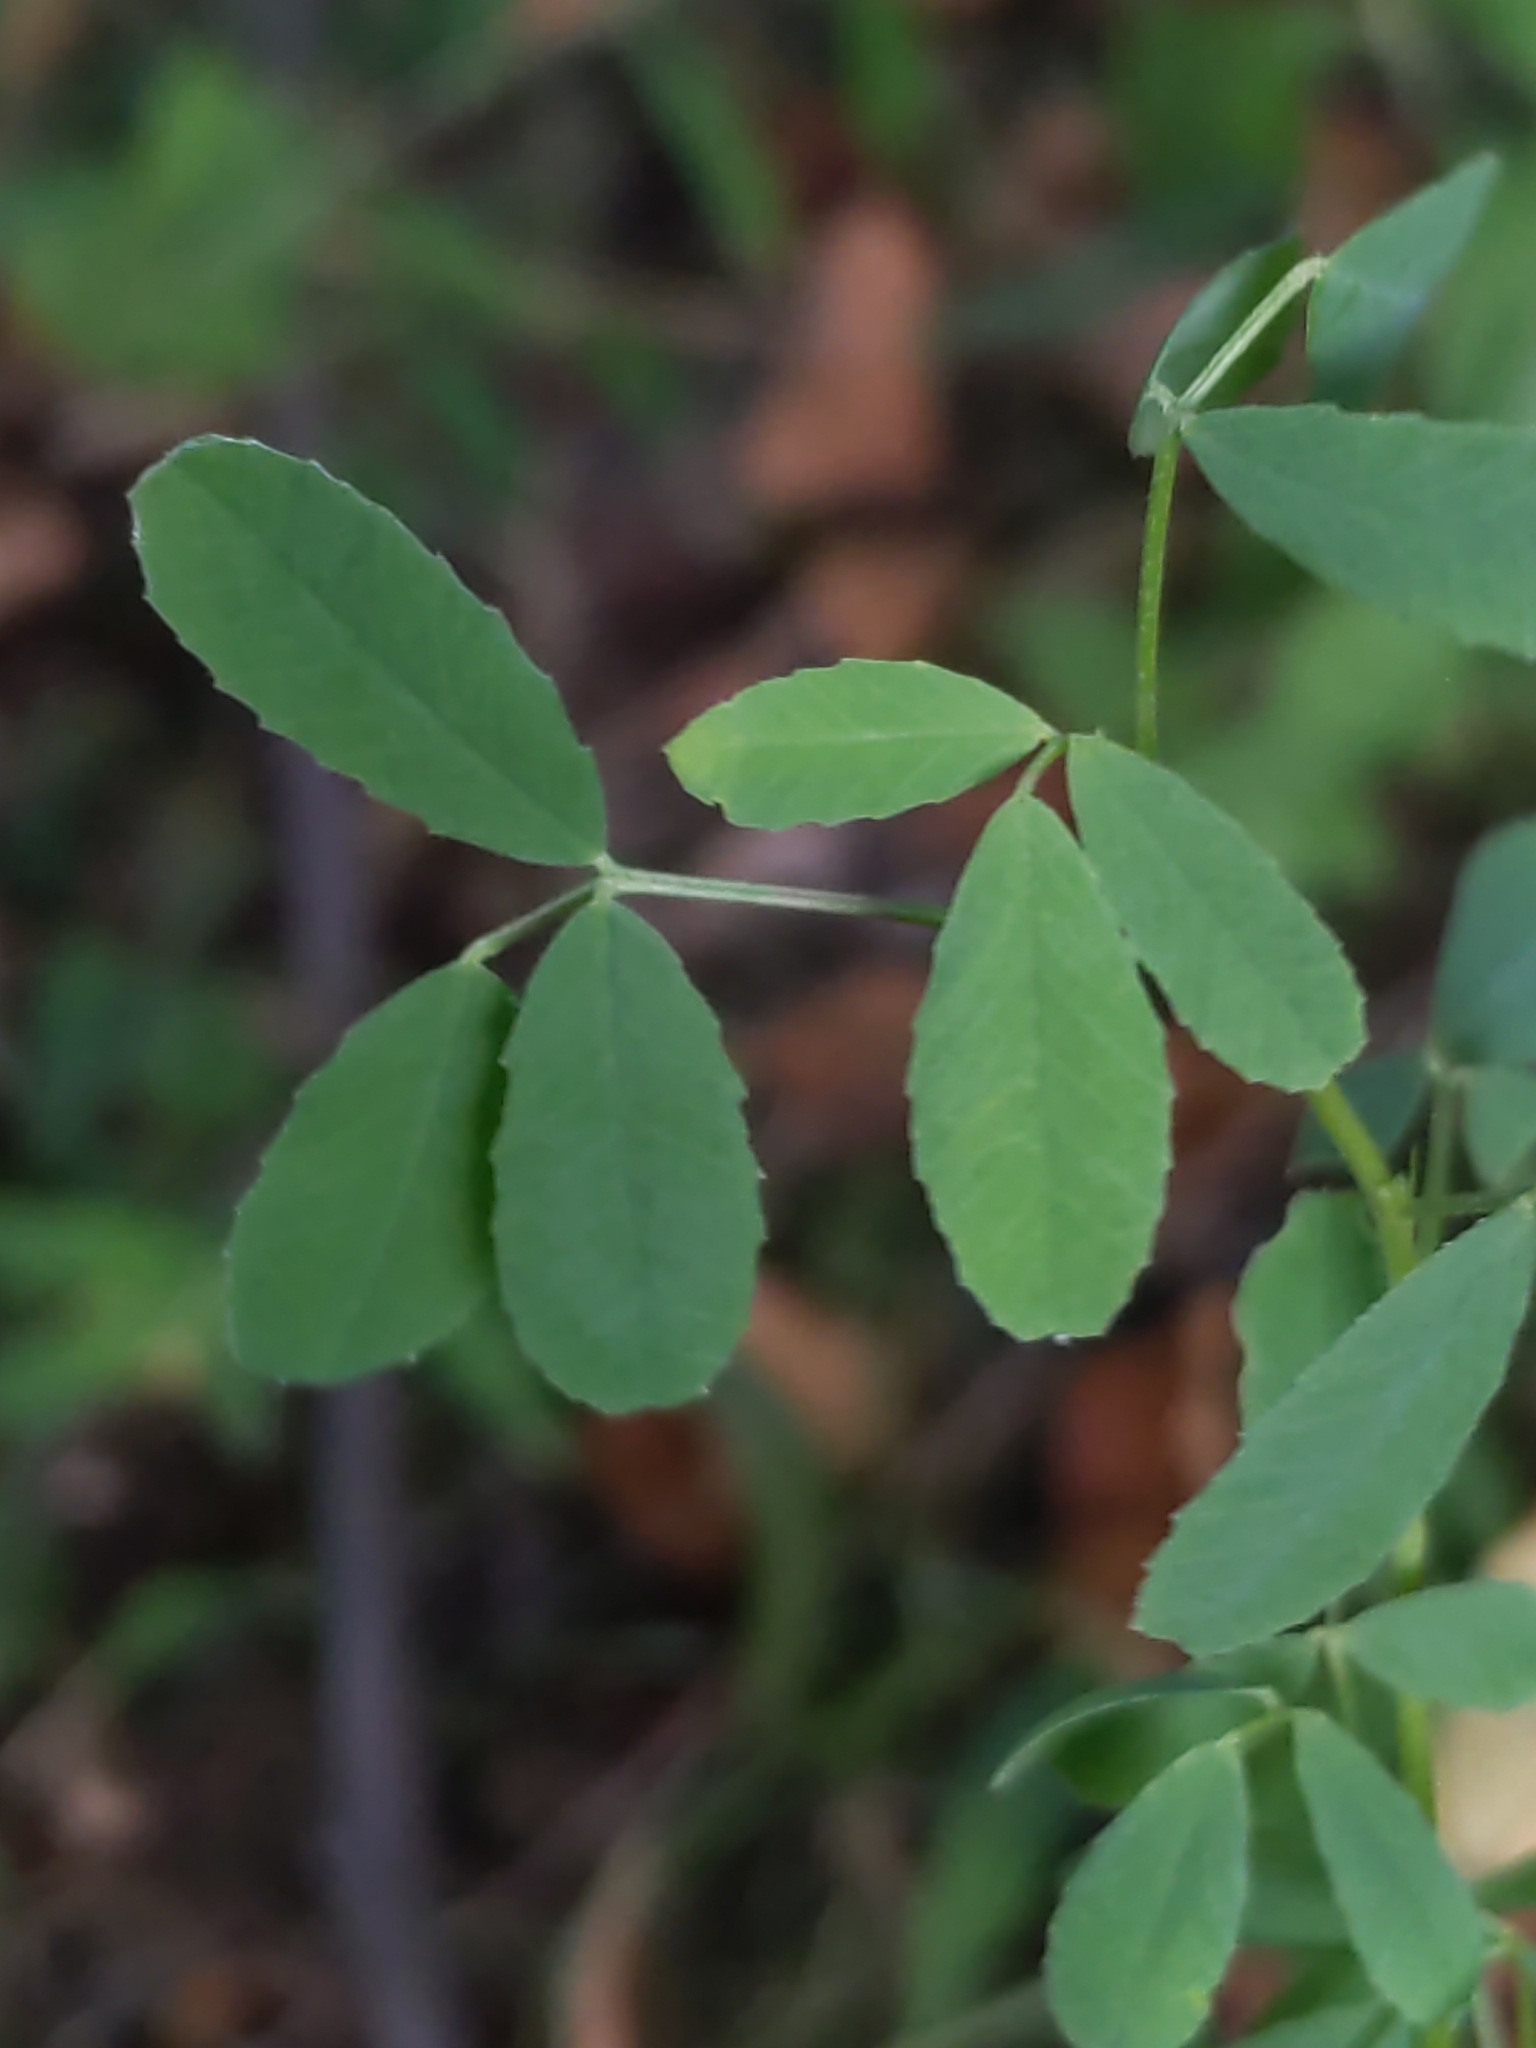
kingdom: Plantae
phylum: Tracheophyta
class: Magnoliopsida
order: Fabales
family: Fabaceae
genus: Melilotus
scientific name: Melilotus
